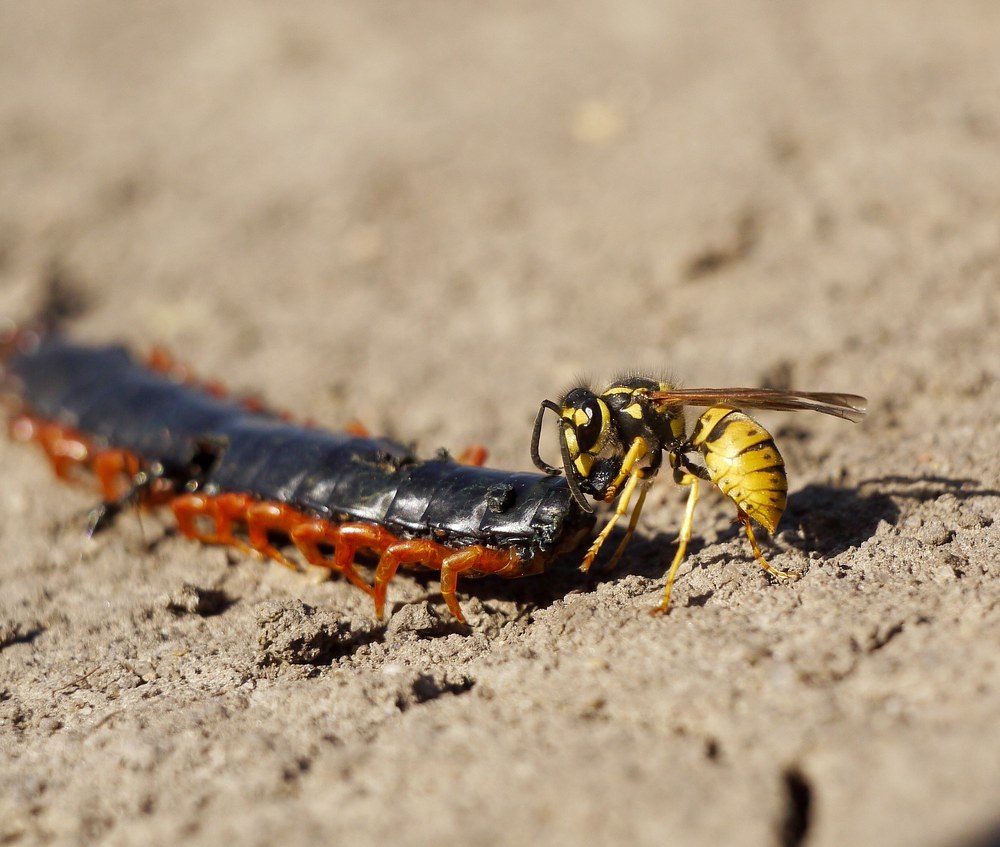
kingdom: Animalia
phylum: Arthropoda
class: Insecta
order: Hymenoptera
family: Vespidae
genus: Vespula
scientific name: Vespula germanica
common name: German wasp
